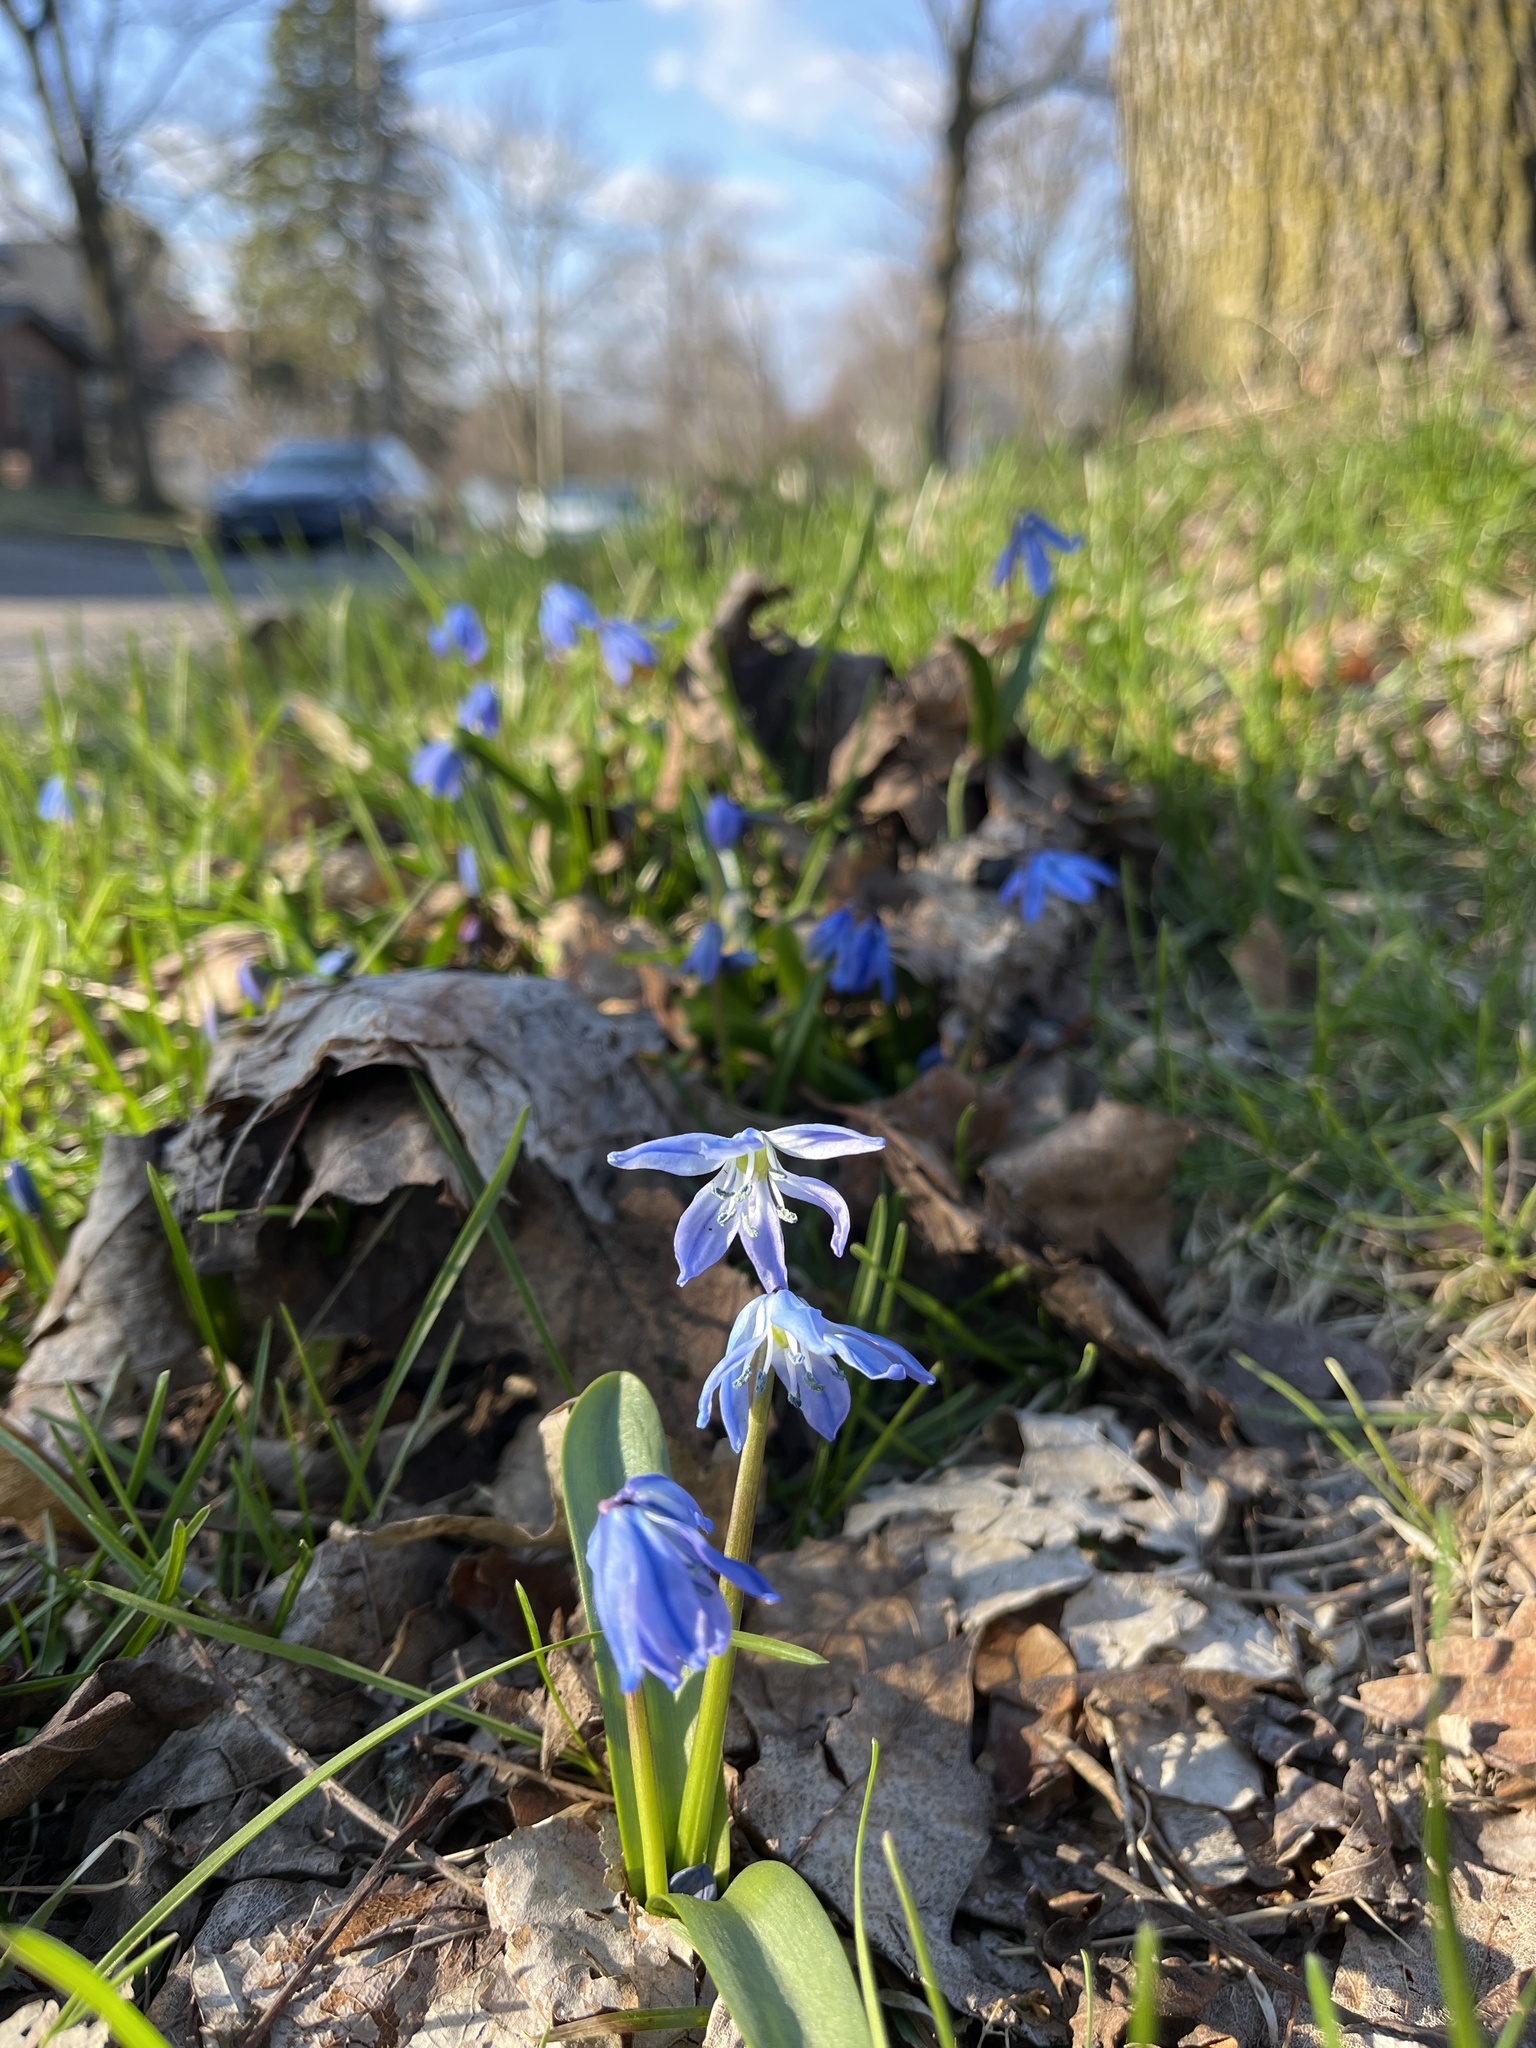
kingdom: Plantae
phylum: Tracheophyta
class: Liliopsida
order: Asparagales
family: Asparagaceae
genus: Scilla
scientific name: Scilla siberica
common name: Siberian squill
